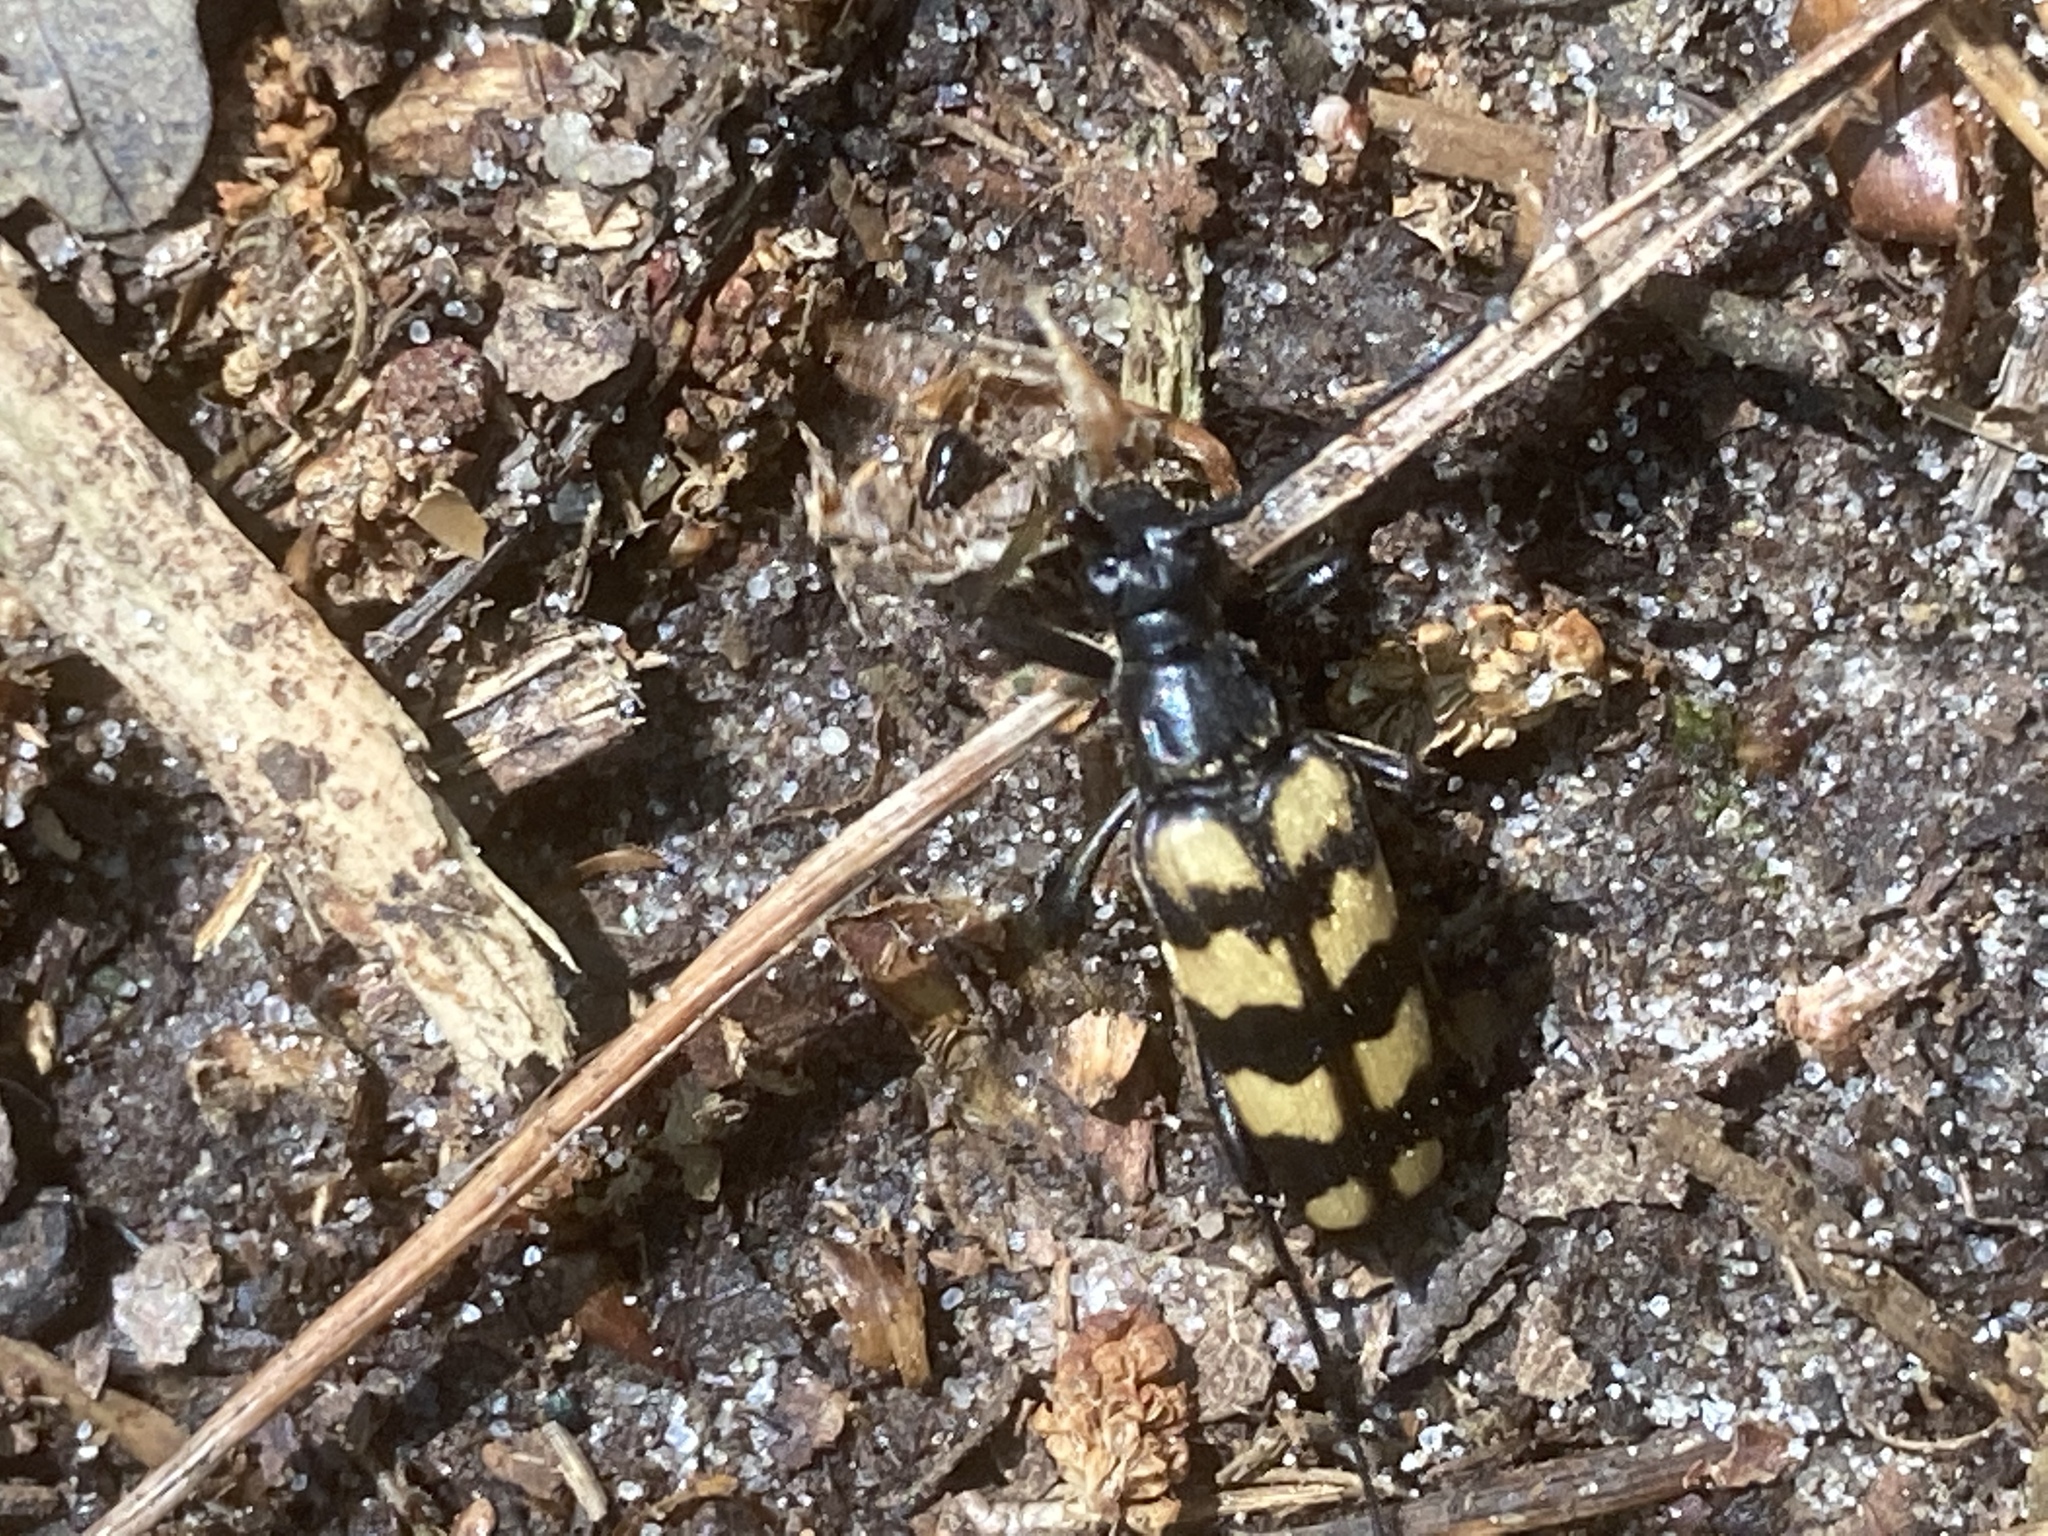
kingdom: Animalia
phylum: Arthropoda
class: Insecta
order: Coleoptera
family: Cerambycidae
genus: Leptura
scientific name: Leptura quadrifasciata
